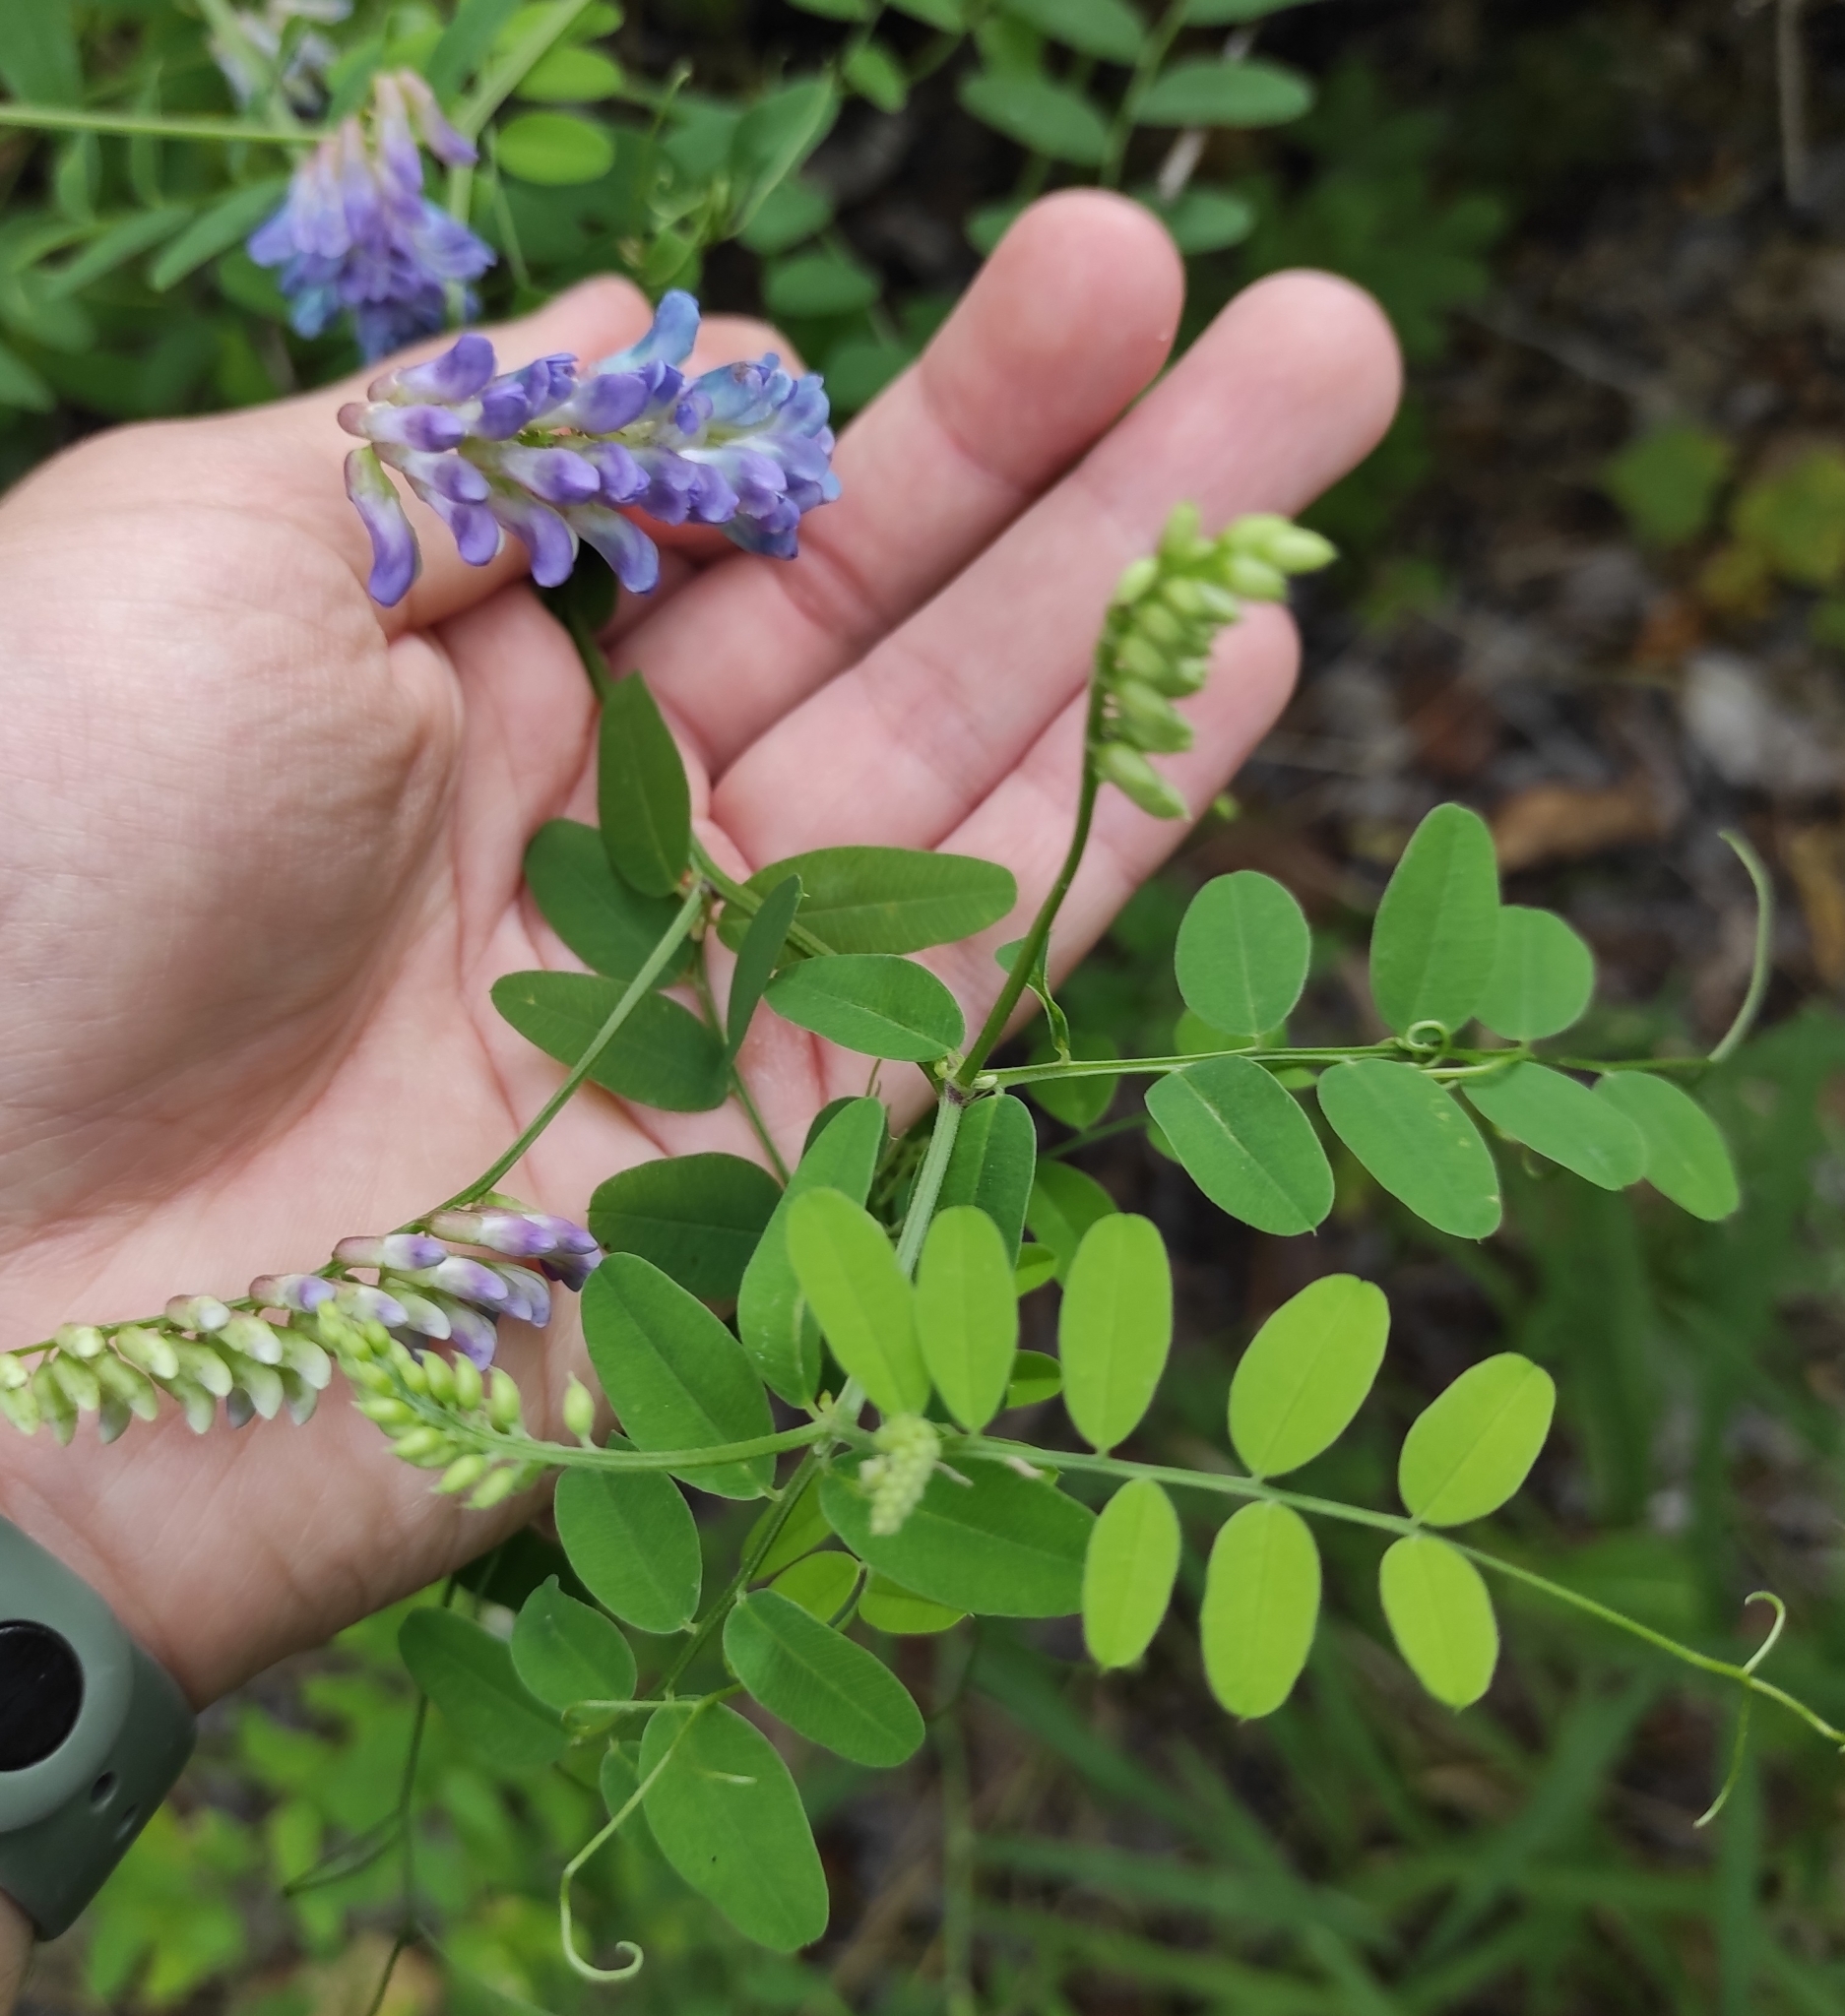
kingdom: Plantae
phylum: Tracheophyta
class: Magnoliopsida
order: Fabales
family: Fabaceae
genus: Vicia
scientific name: Vicia amurensis
